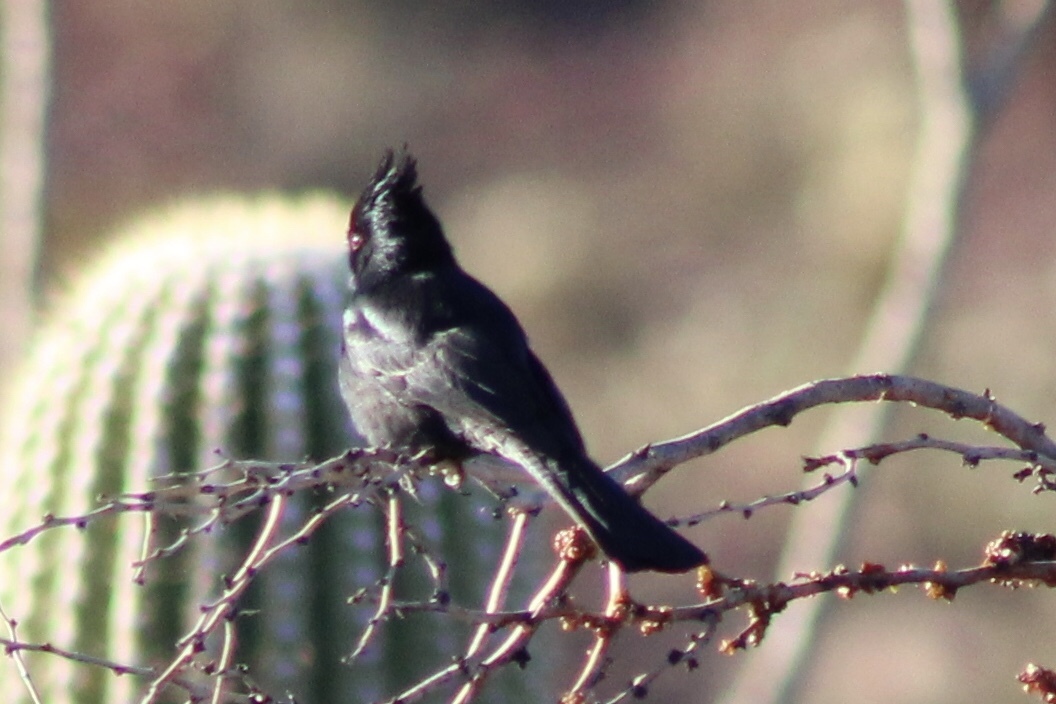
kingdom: Animalia
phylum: Chordata
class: Aves
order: Passeriformes
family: Ptilogonatidae
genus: Phainopepla
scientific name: Phainopepla nitens
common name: Phainopepla
